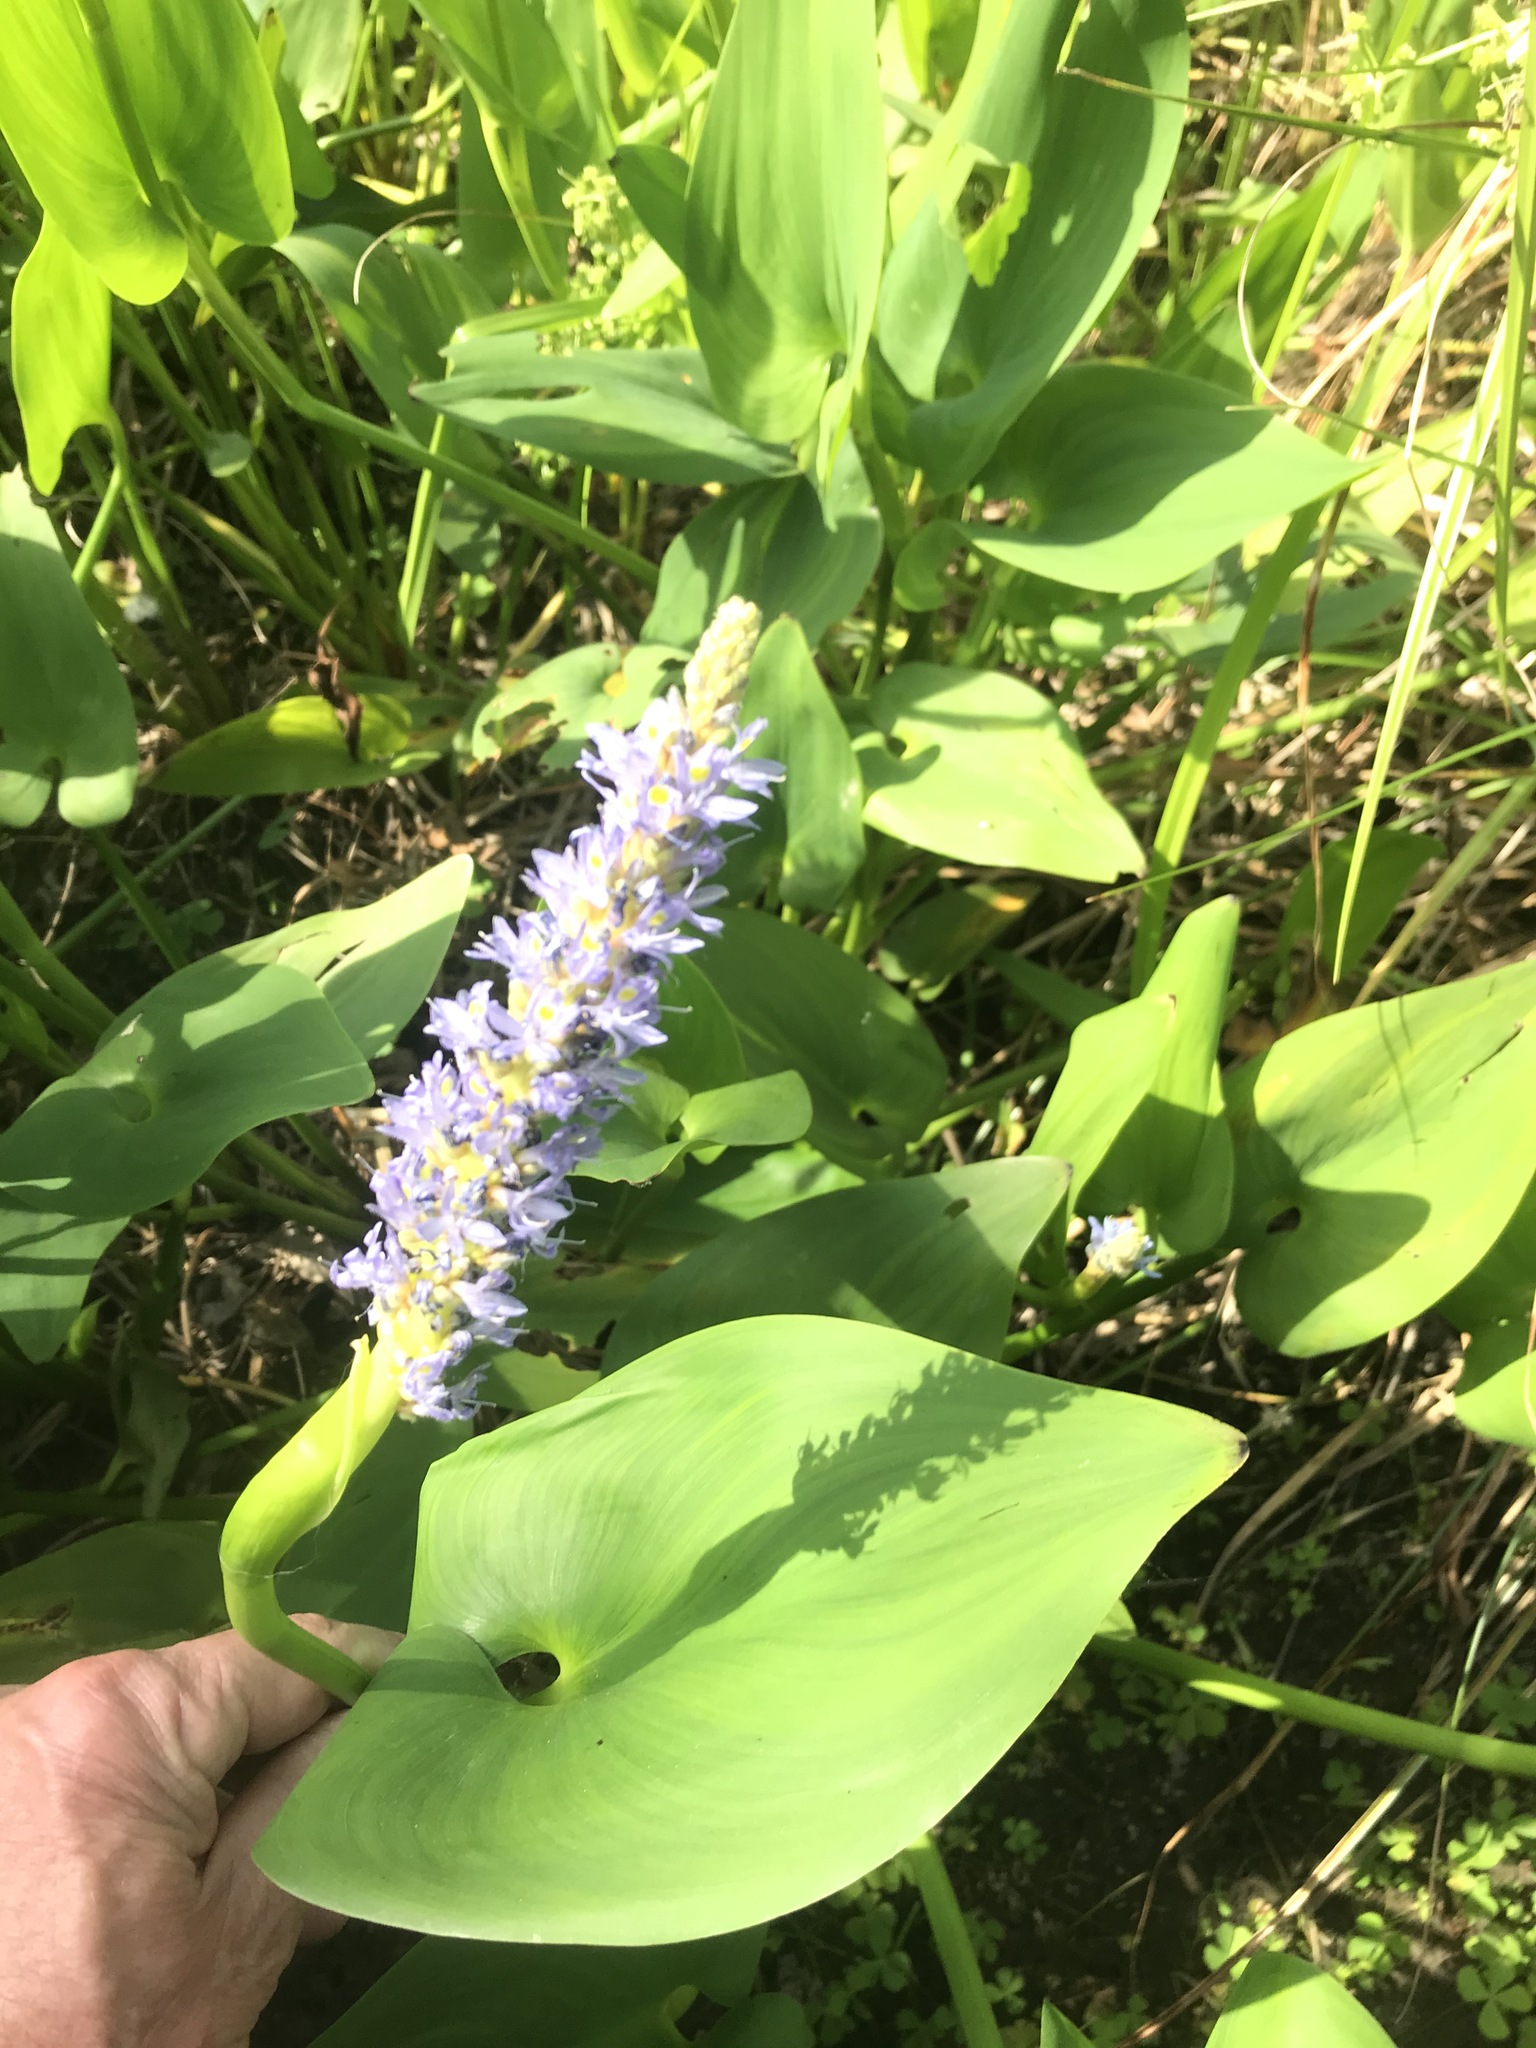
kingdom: Plantae
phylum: Tracheophyta
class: Liliopsida
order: Commelinales
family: Pontederiaceae
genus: Pontederia
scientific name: Pontederia cordata
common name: Pickerelweed
